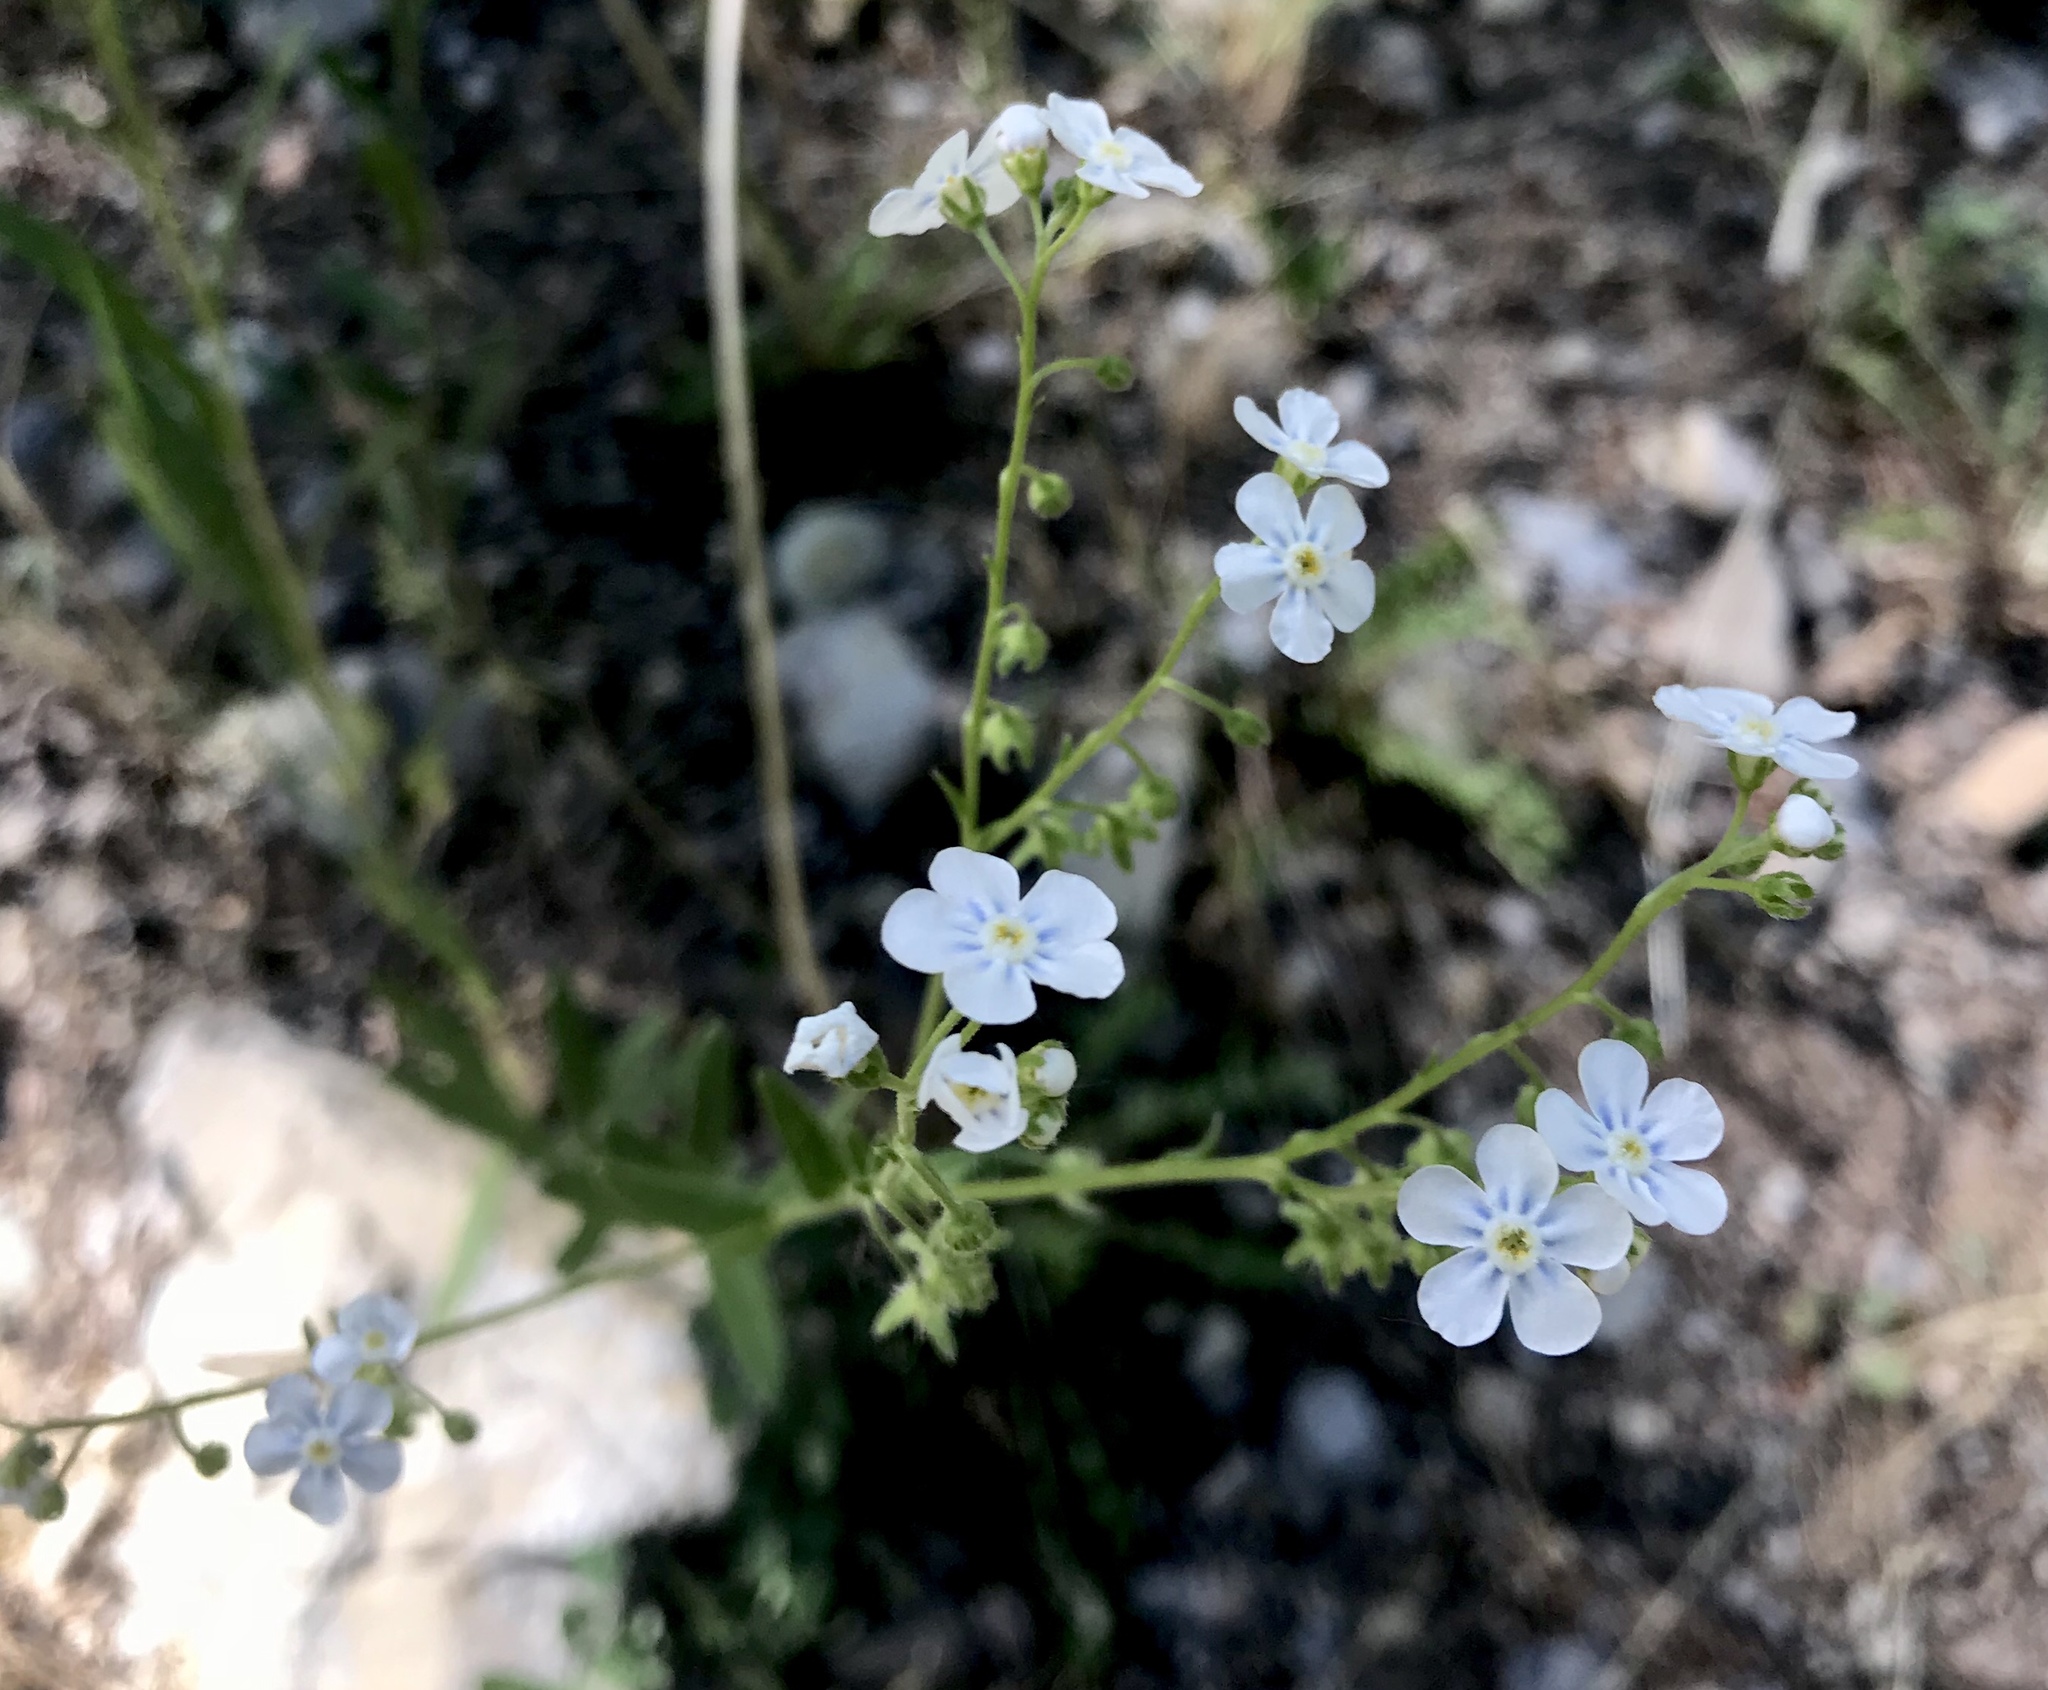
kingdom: Plantae
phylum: Tracheophyta
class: Magnoliopsida
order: Boraginales
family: Boraginaceae
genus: Hackelia
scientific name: Hackelia patens
